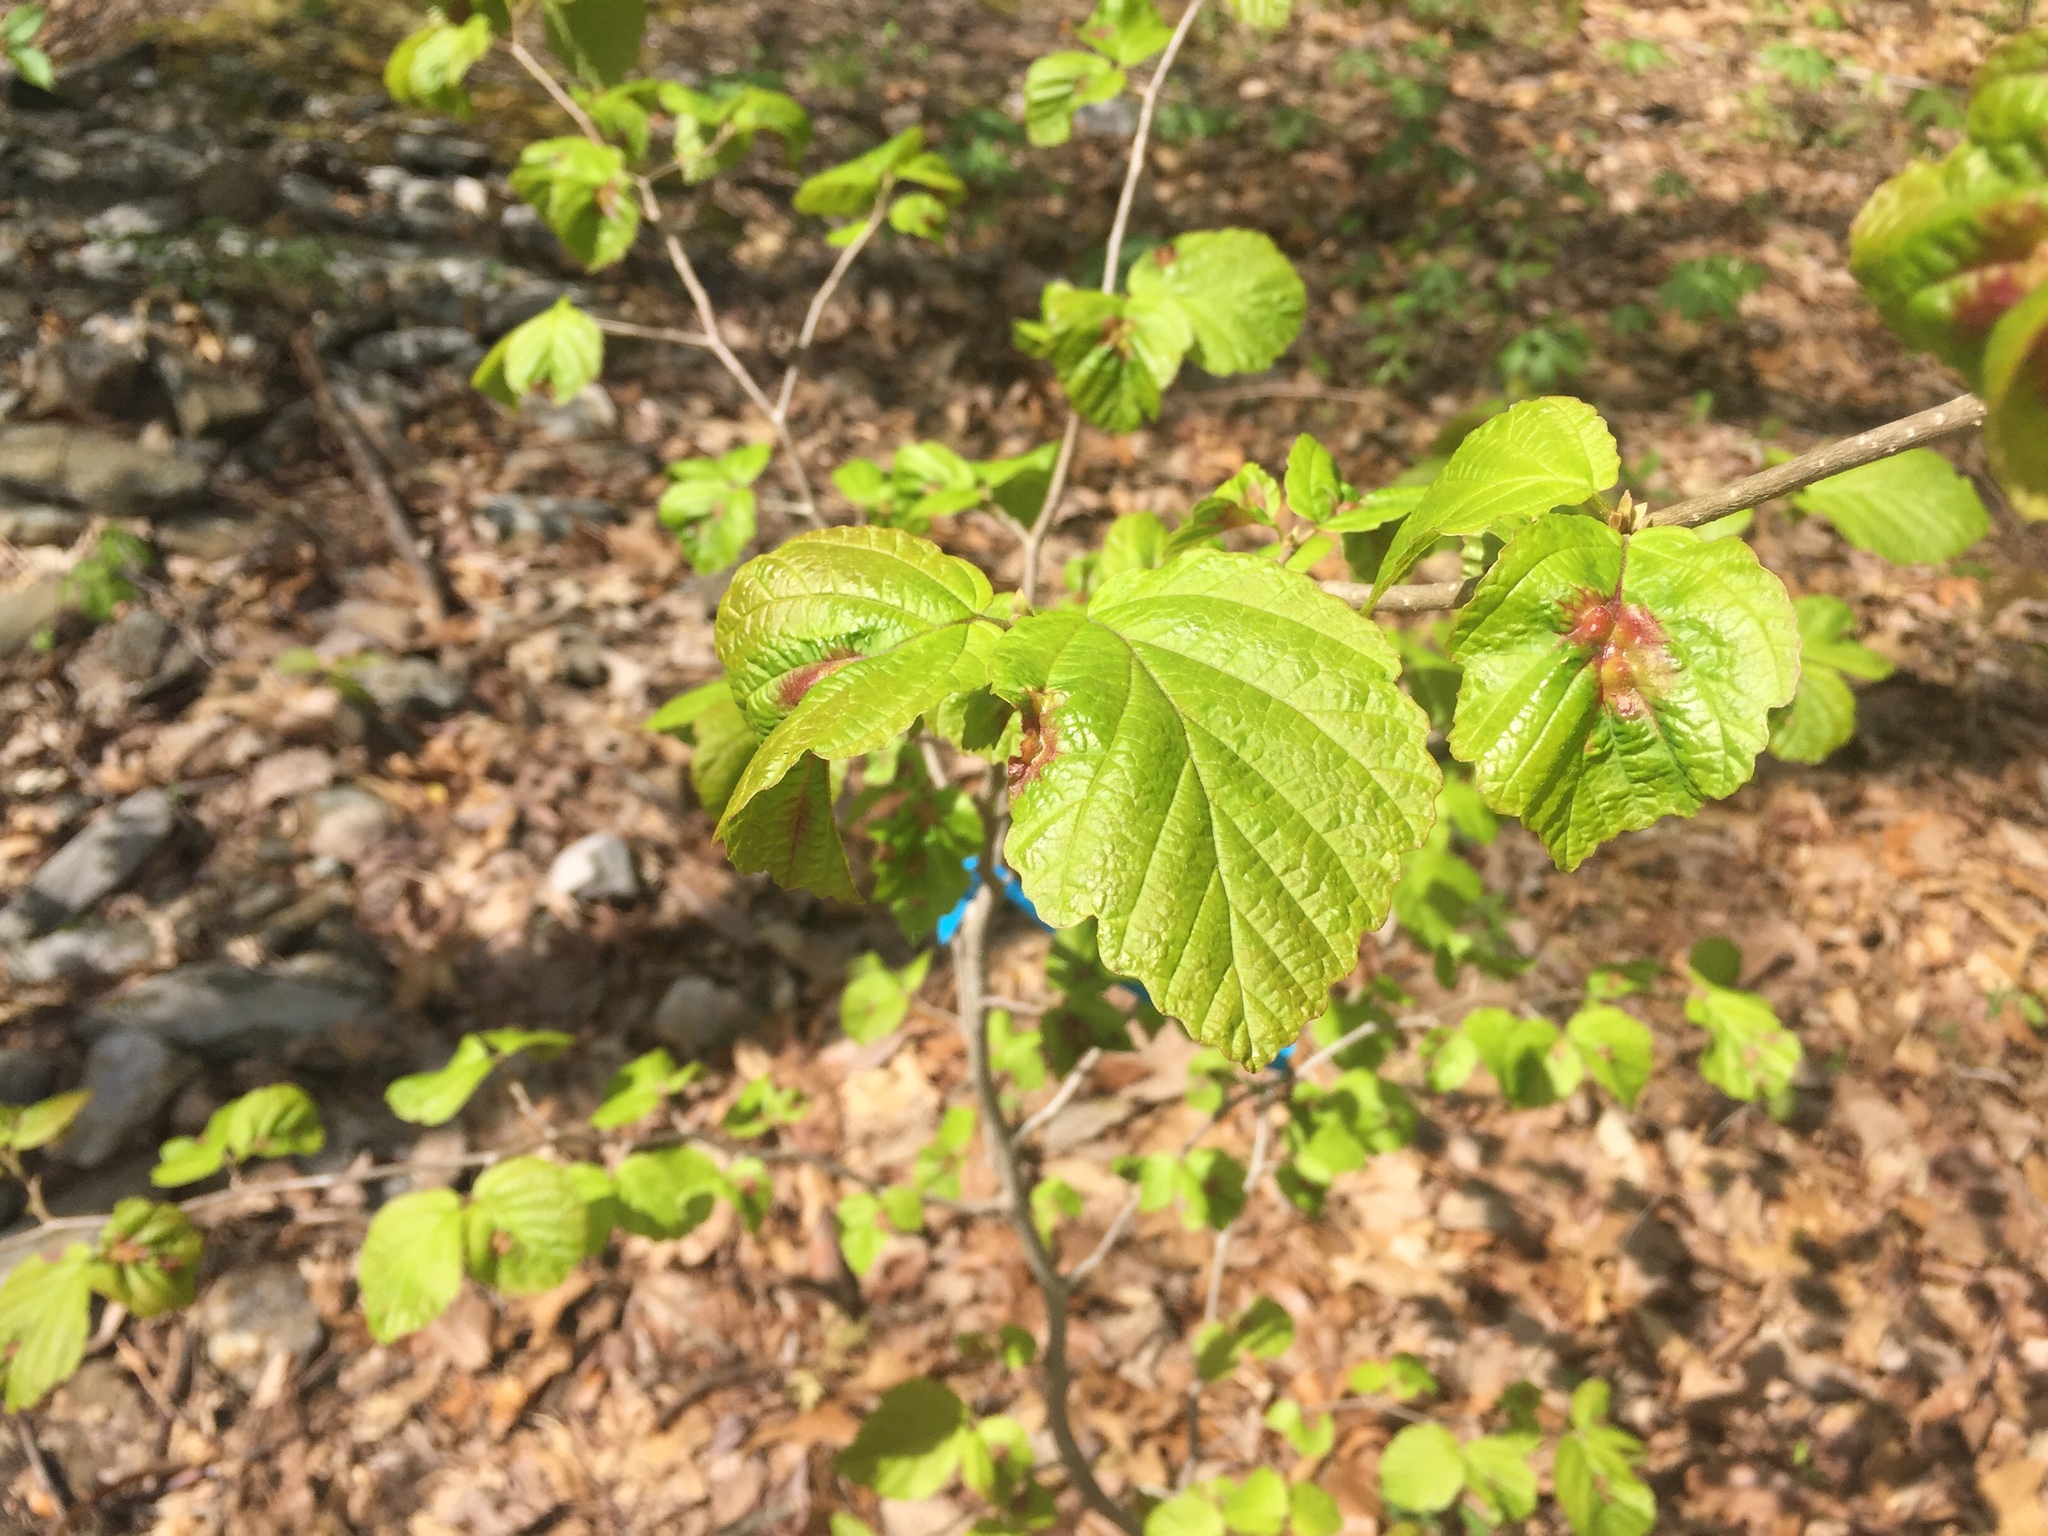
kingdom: Plantae
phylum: Tracheophyta
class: Magnoliopsida
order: Saxifragales
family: Hamamelidaceae
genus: Hamamelis
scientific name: Hamamelis virginiana
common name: Witch-hazel
